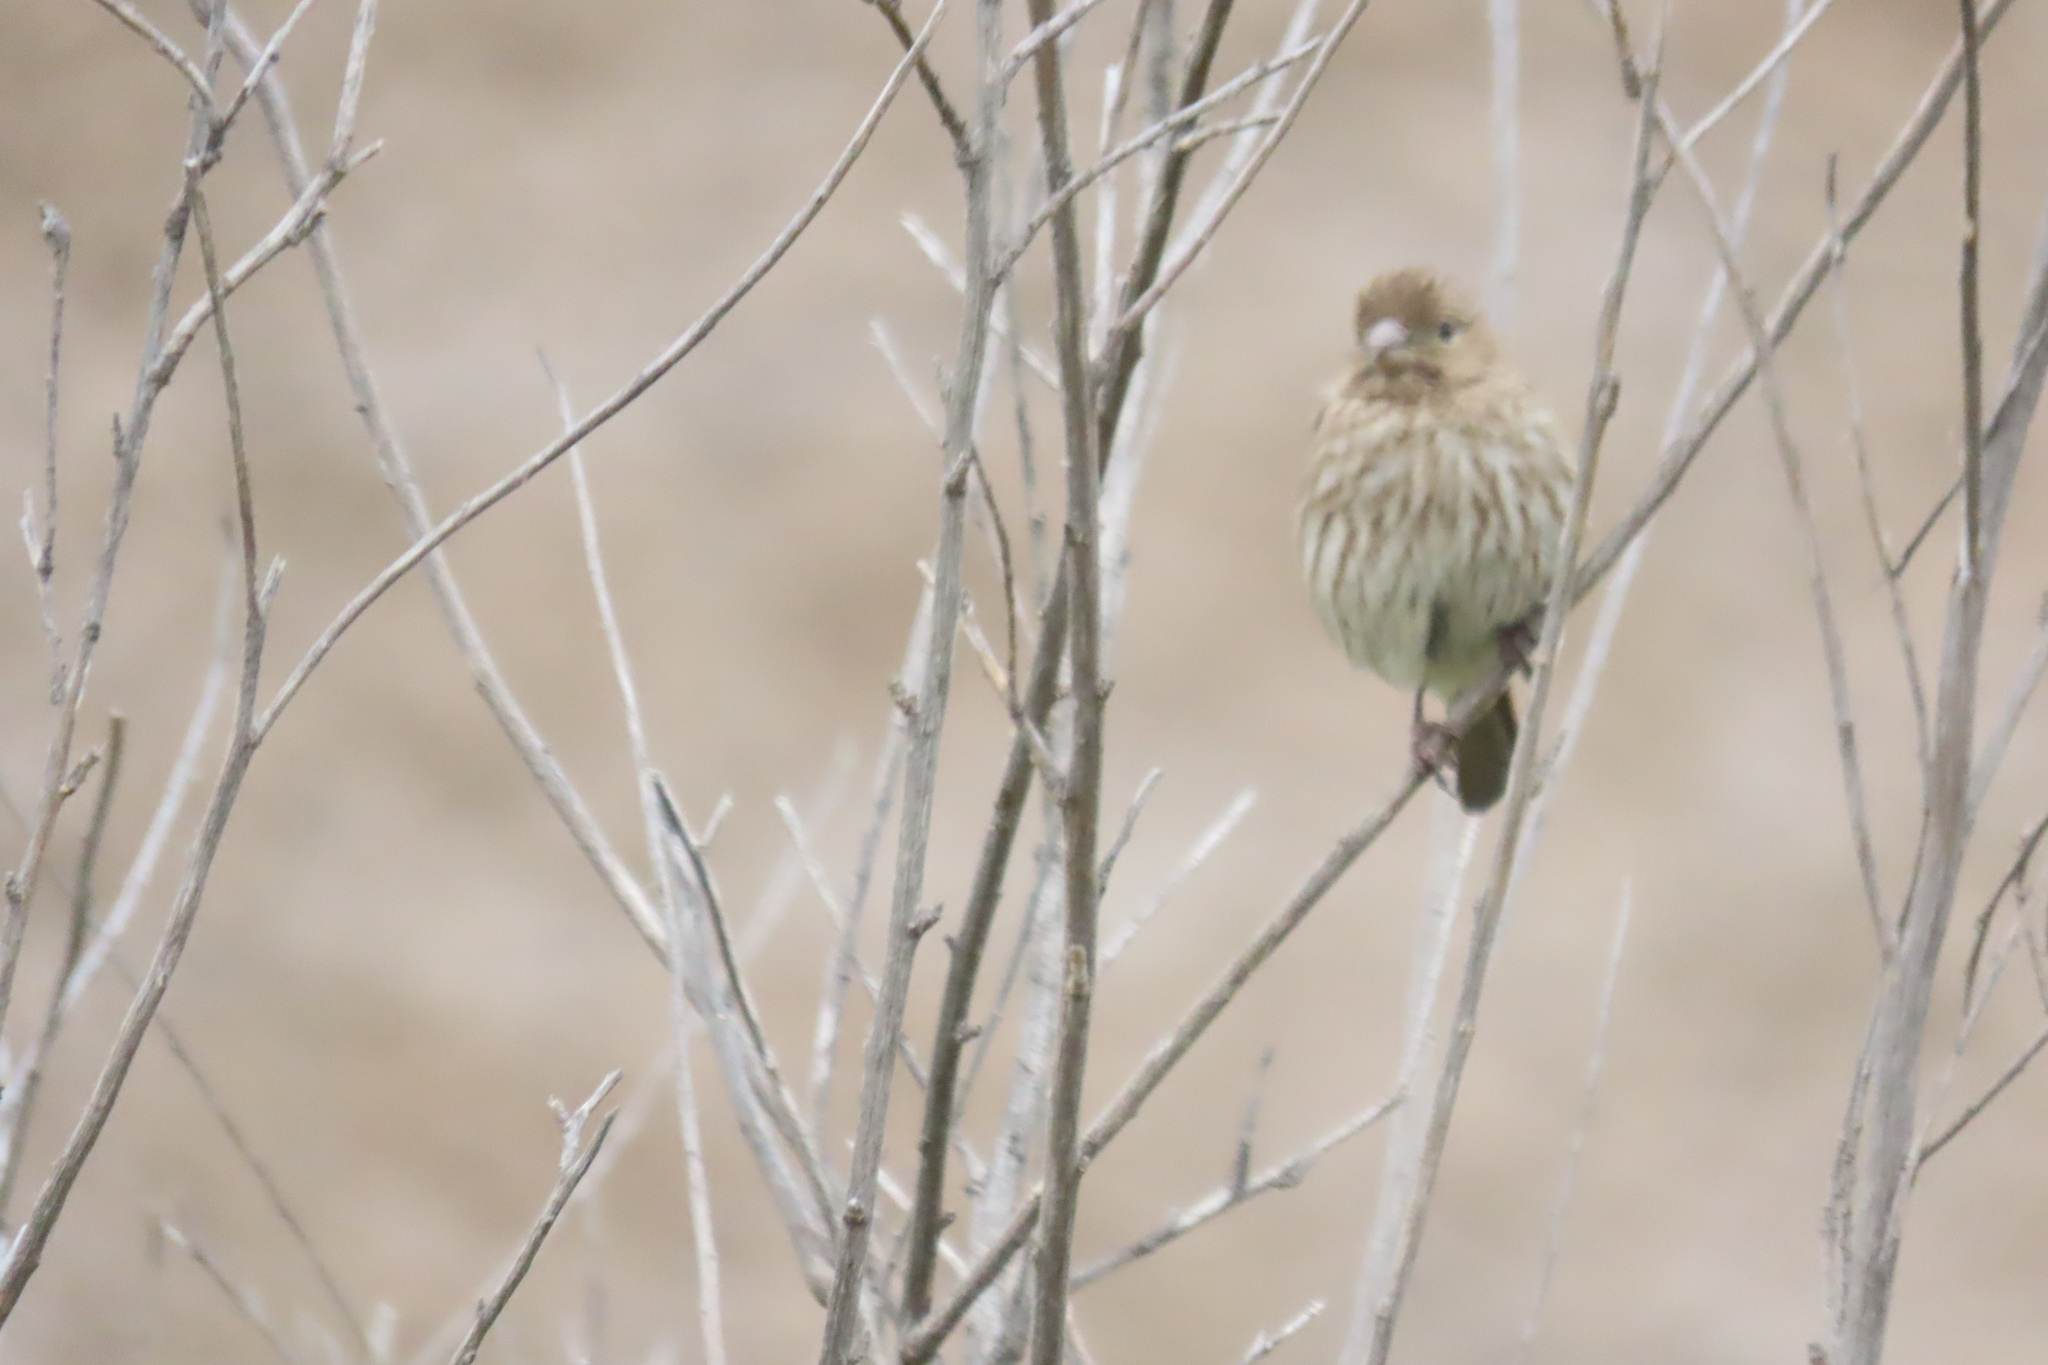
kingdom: Animalia
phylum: Chordata
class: Aves
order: Passeriformes
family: Fringillidae
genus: Haemorhous
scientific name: Haemorhous mexicanus
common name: House finch
